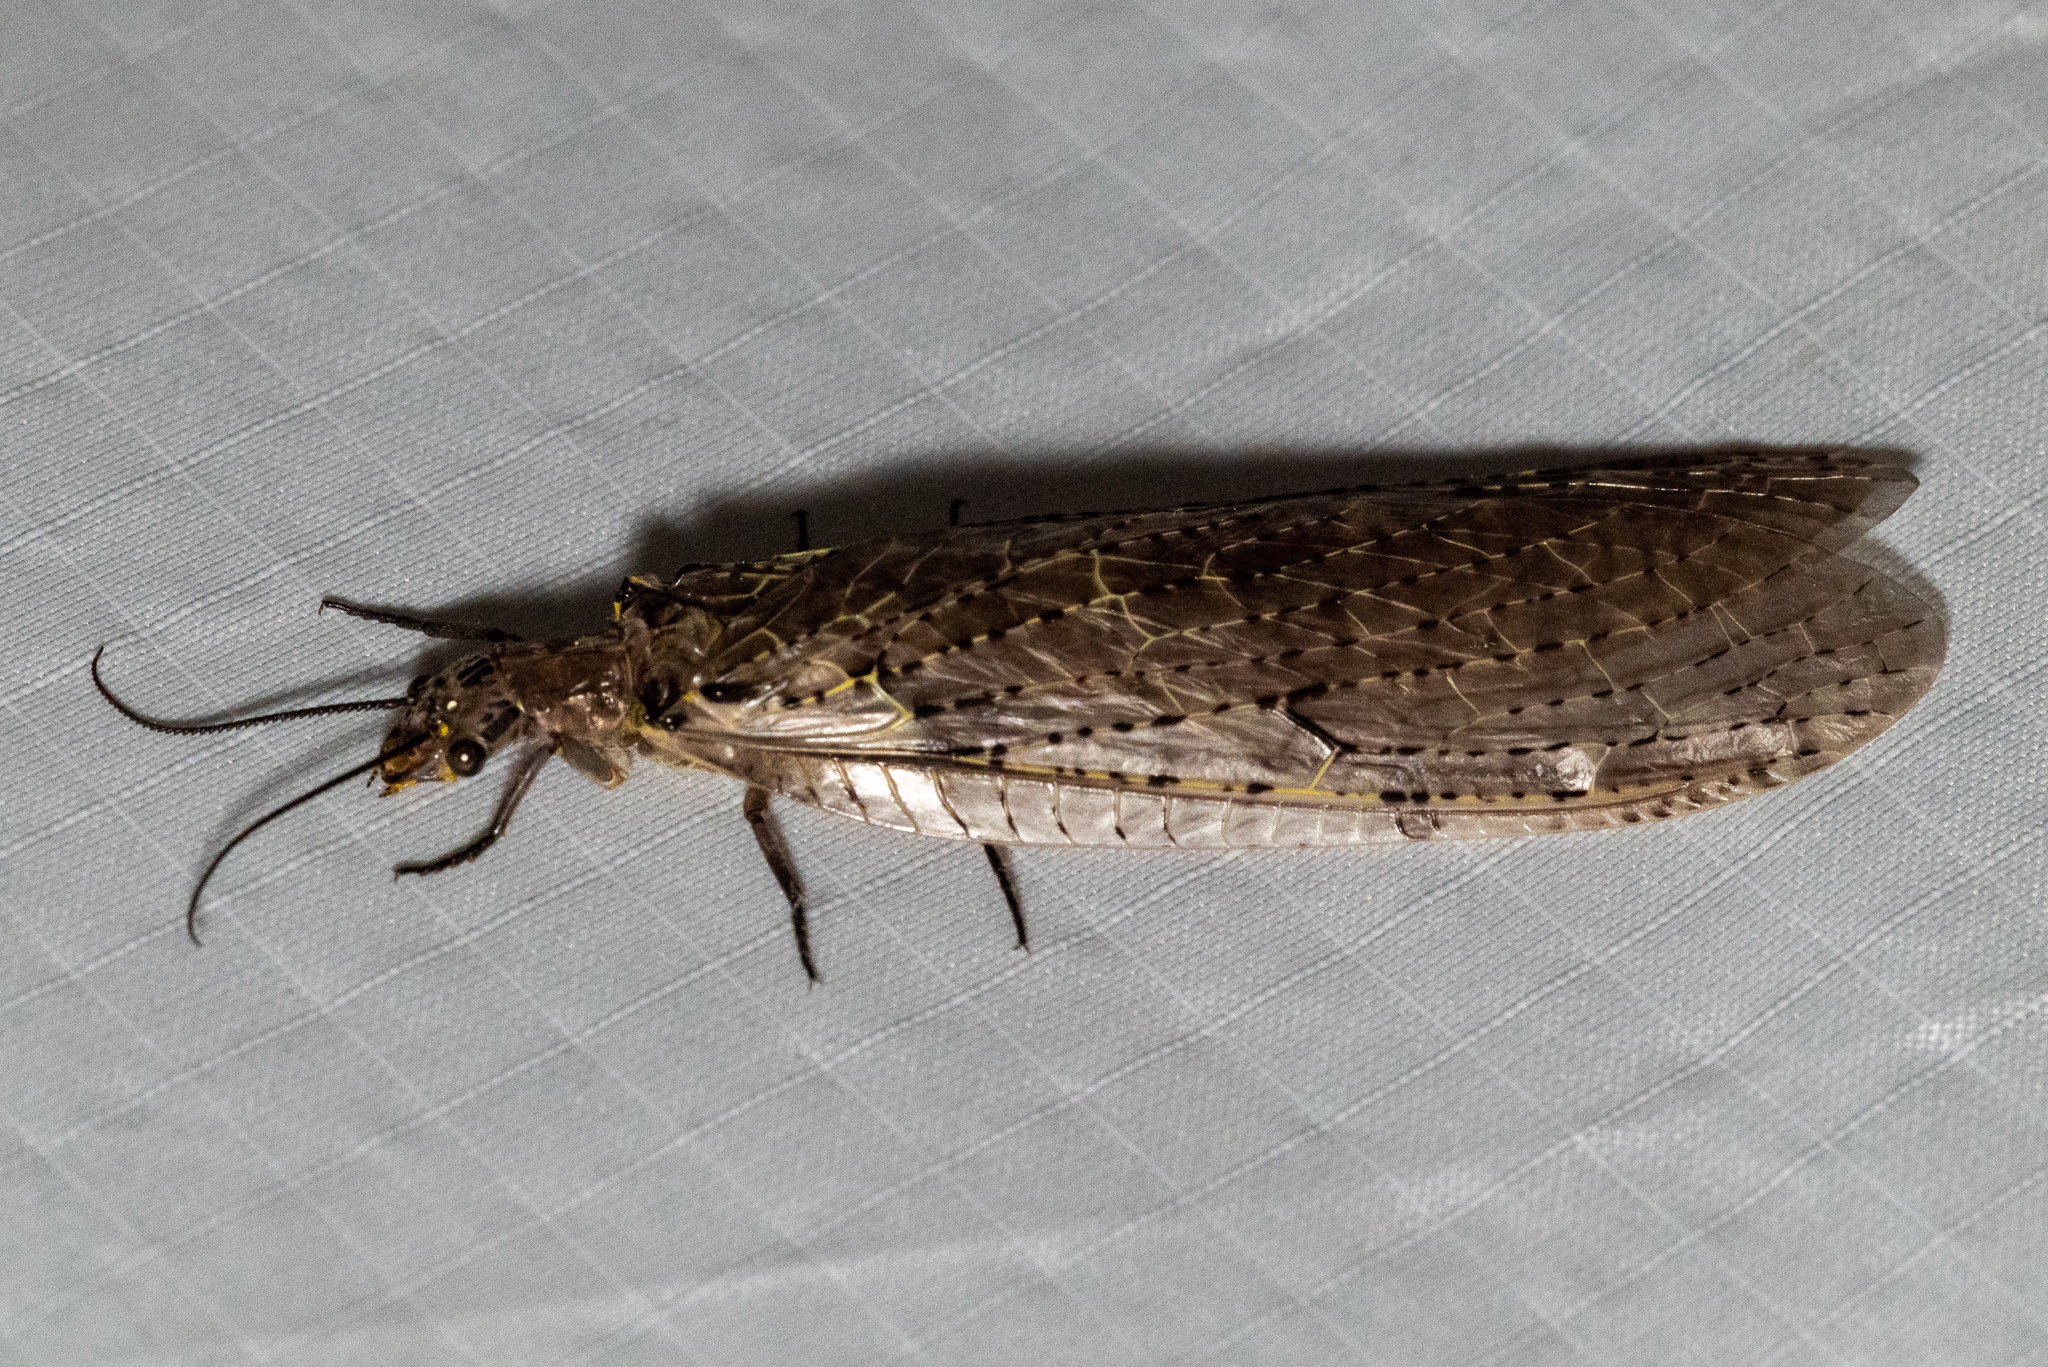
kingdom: Animalia
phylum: Arthropoda
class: Insecta
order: Megaloptera
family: Corydalidae
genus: Chauliodes
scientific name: Chauliodes rastricornis
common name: Spring fishfly
